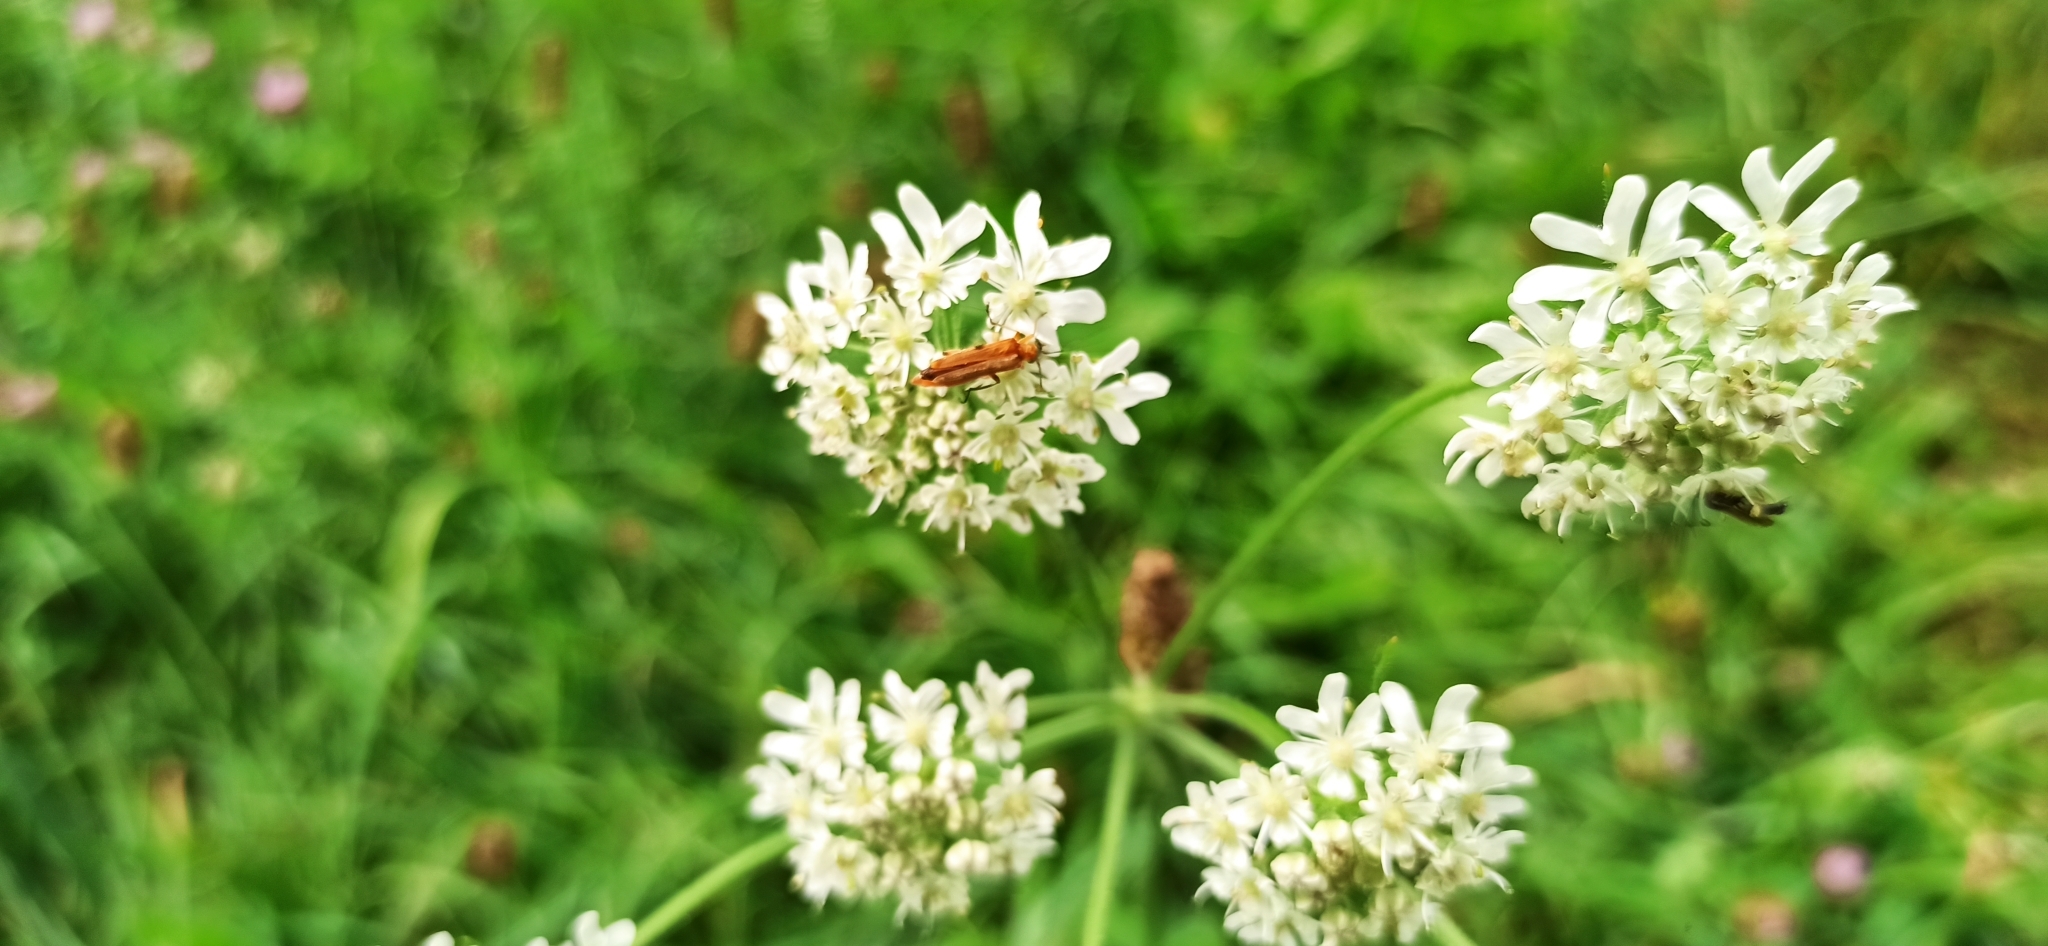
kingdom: Animalia
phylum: Arthropoda
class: Insecta
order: Coleoptera
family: Oedemeridae
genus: Oedemera
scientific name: Oedemera podagrariae
